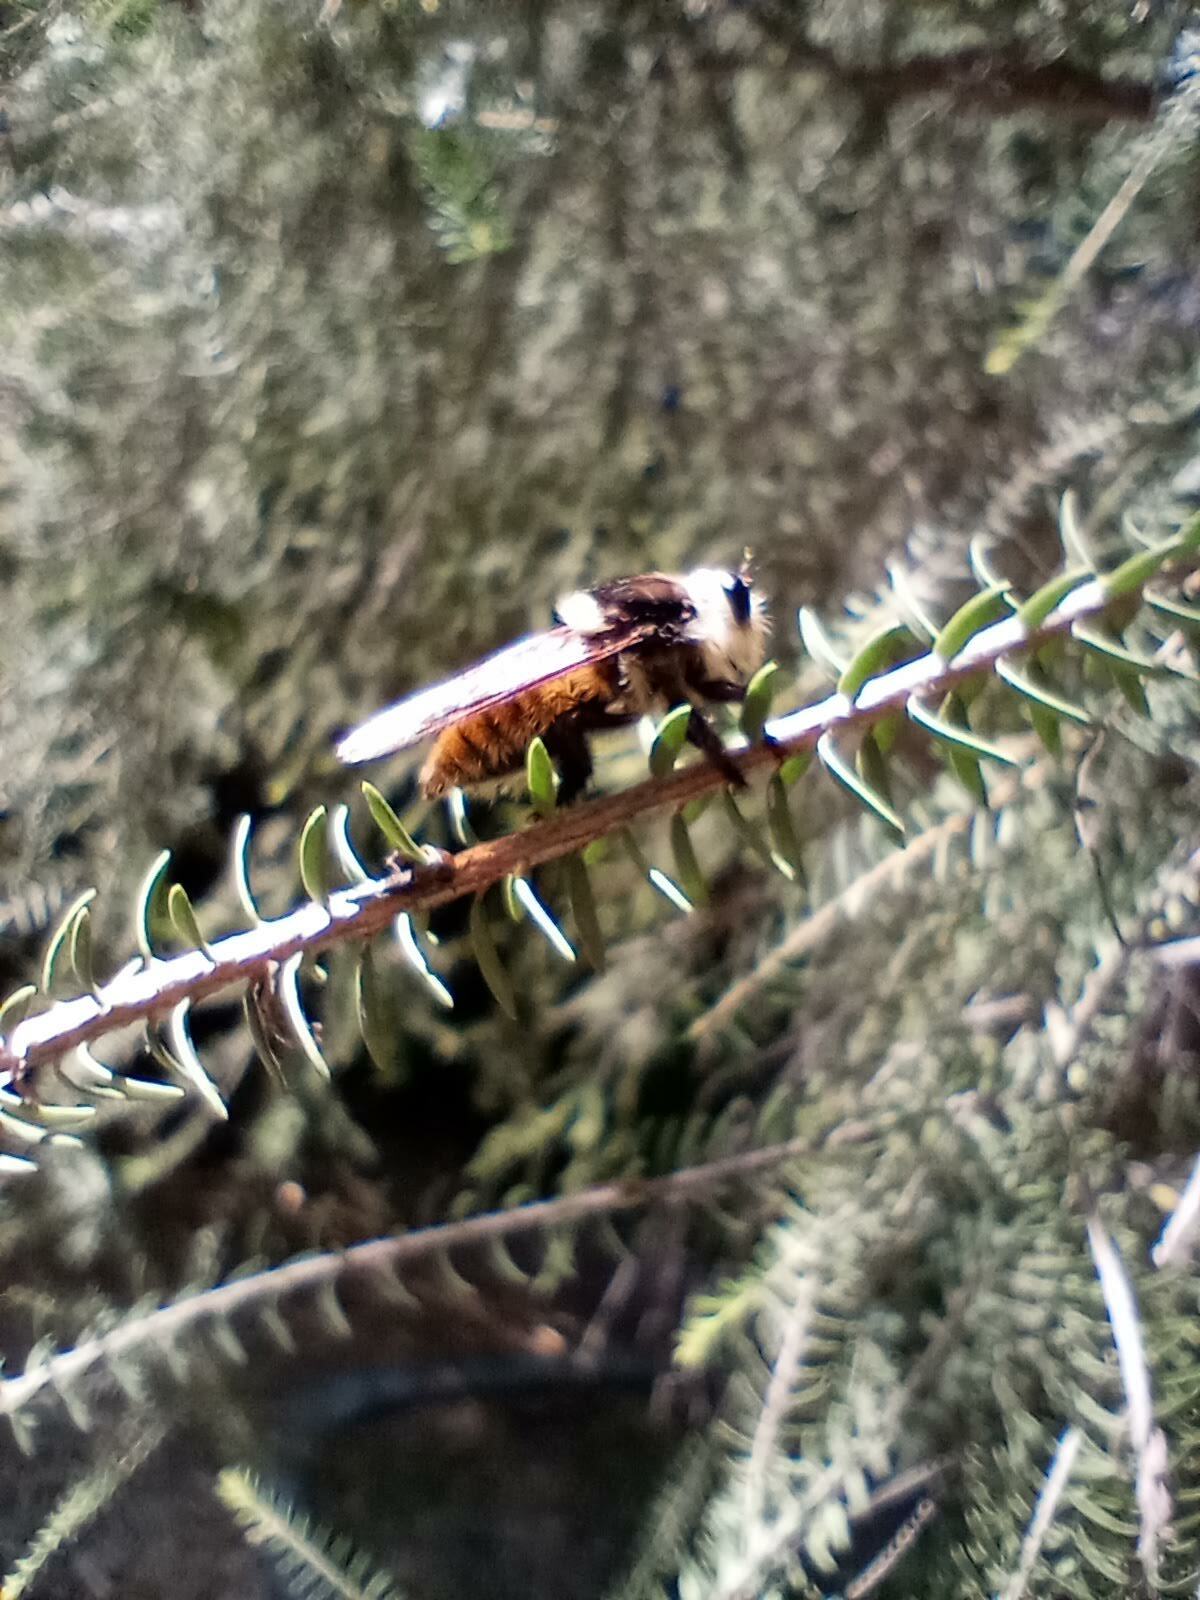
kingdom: Animalia
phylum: Arthropoda
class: Insecta
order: Diptera
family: Asilidae
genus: Mallophora
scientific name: Mallophora fautrix
